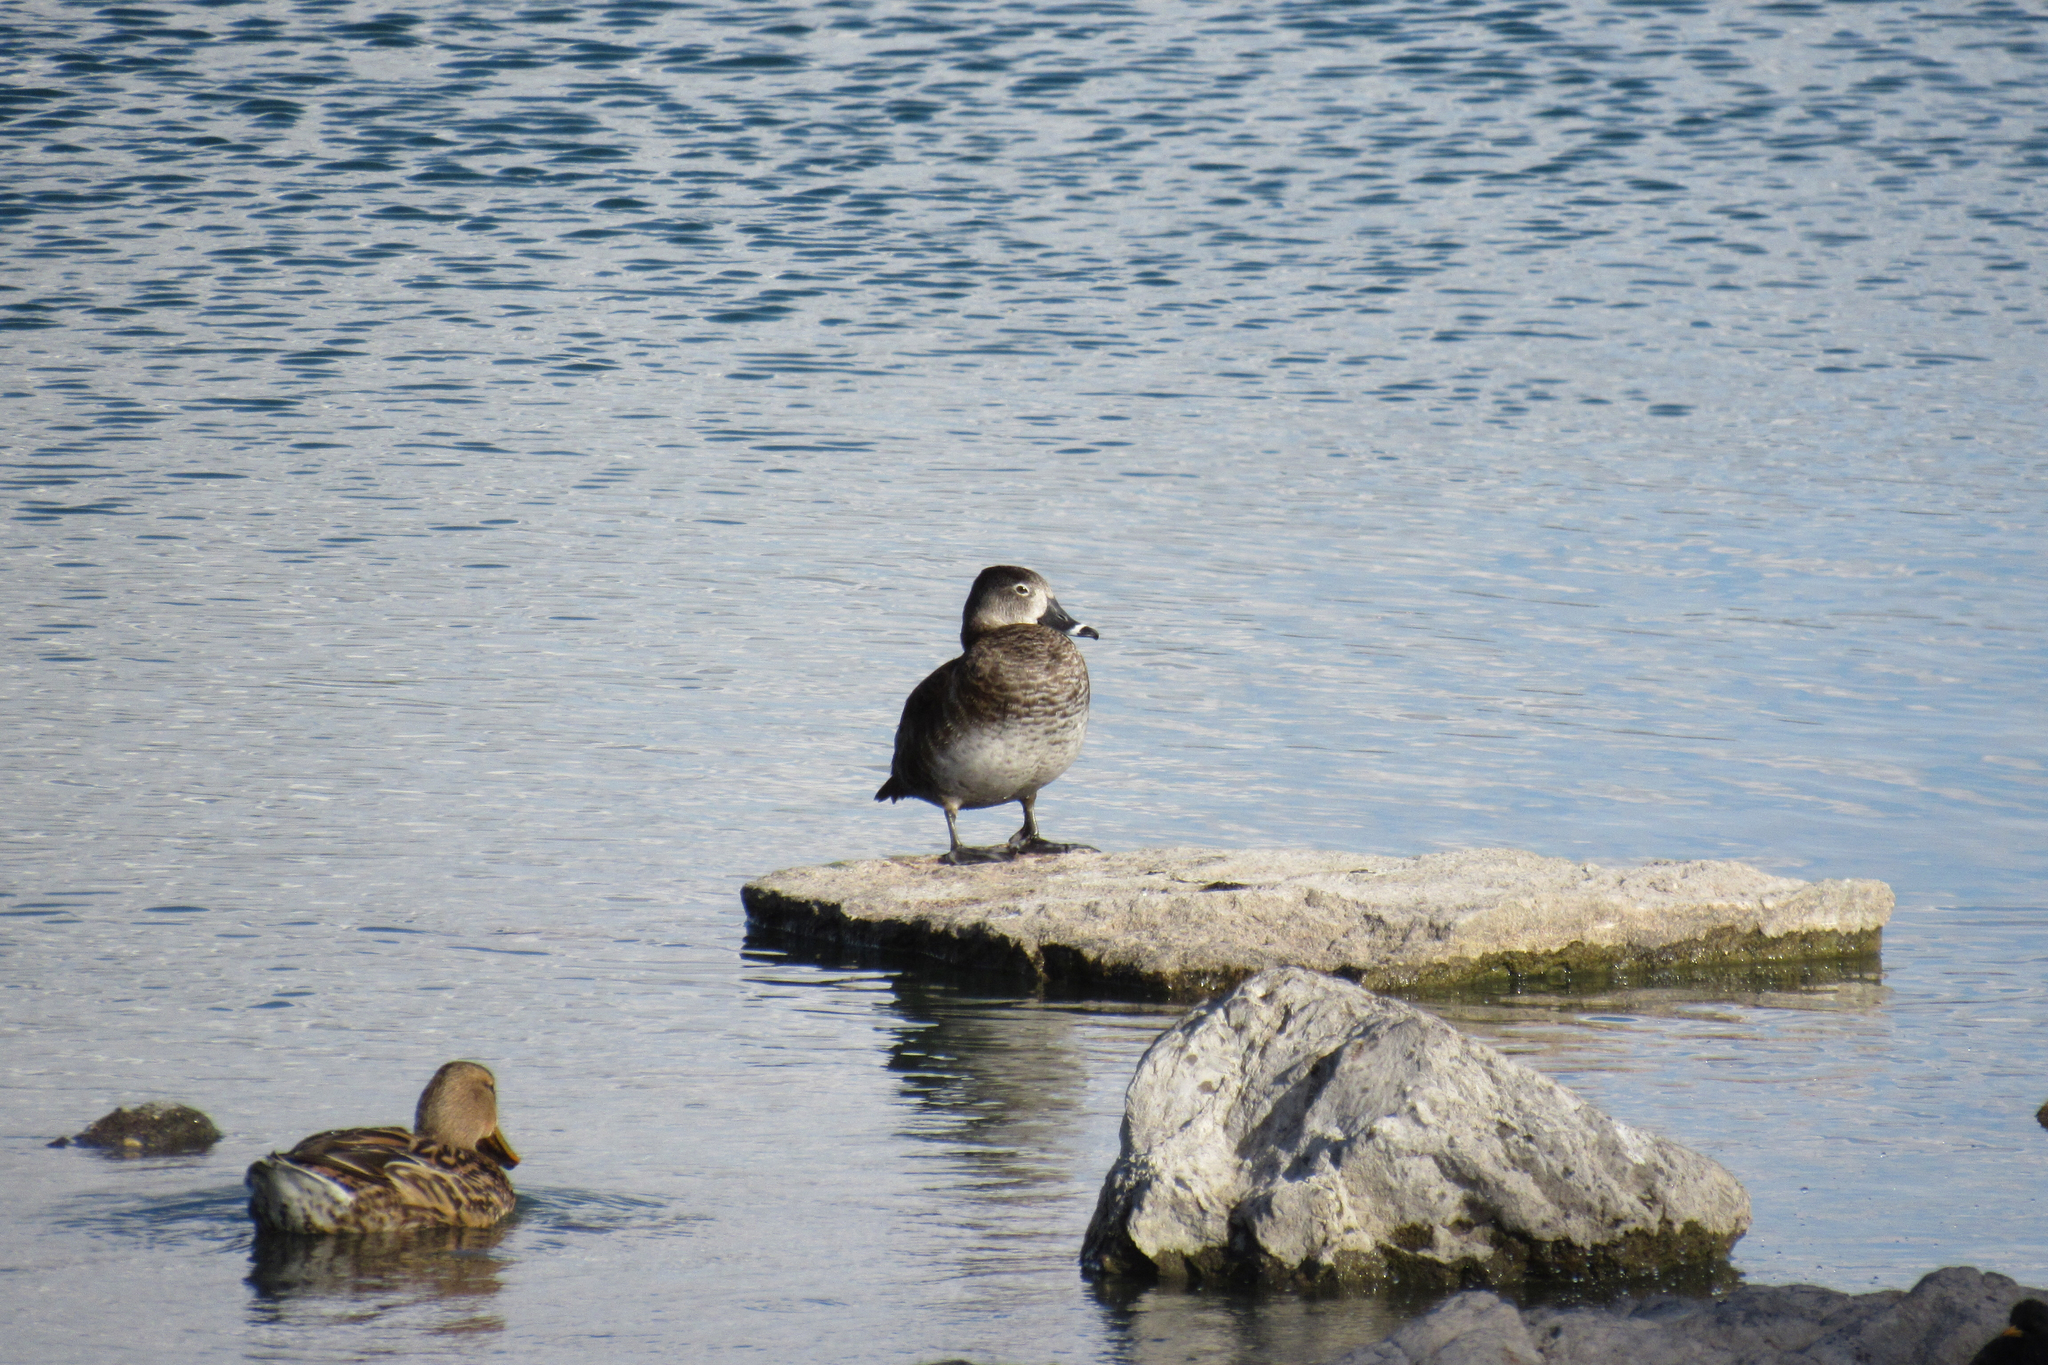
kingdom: Animalia
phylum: Chordata
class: Aves
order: Anseriformes
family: Anatidae
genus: Aythya
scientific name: Aythya collaris
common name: Ring-necked duck
